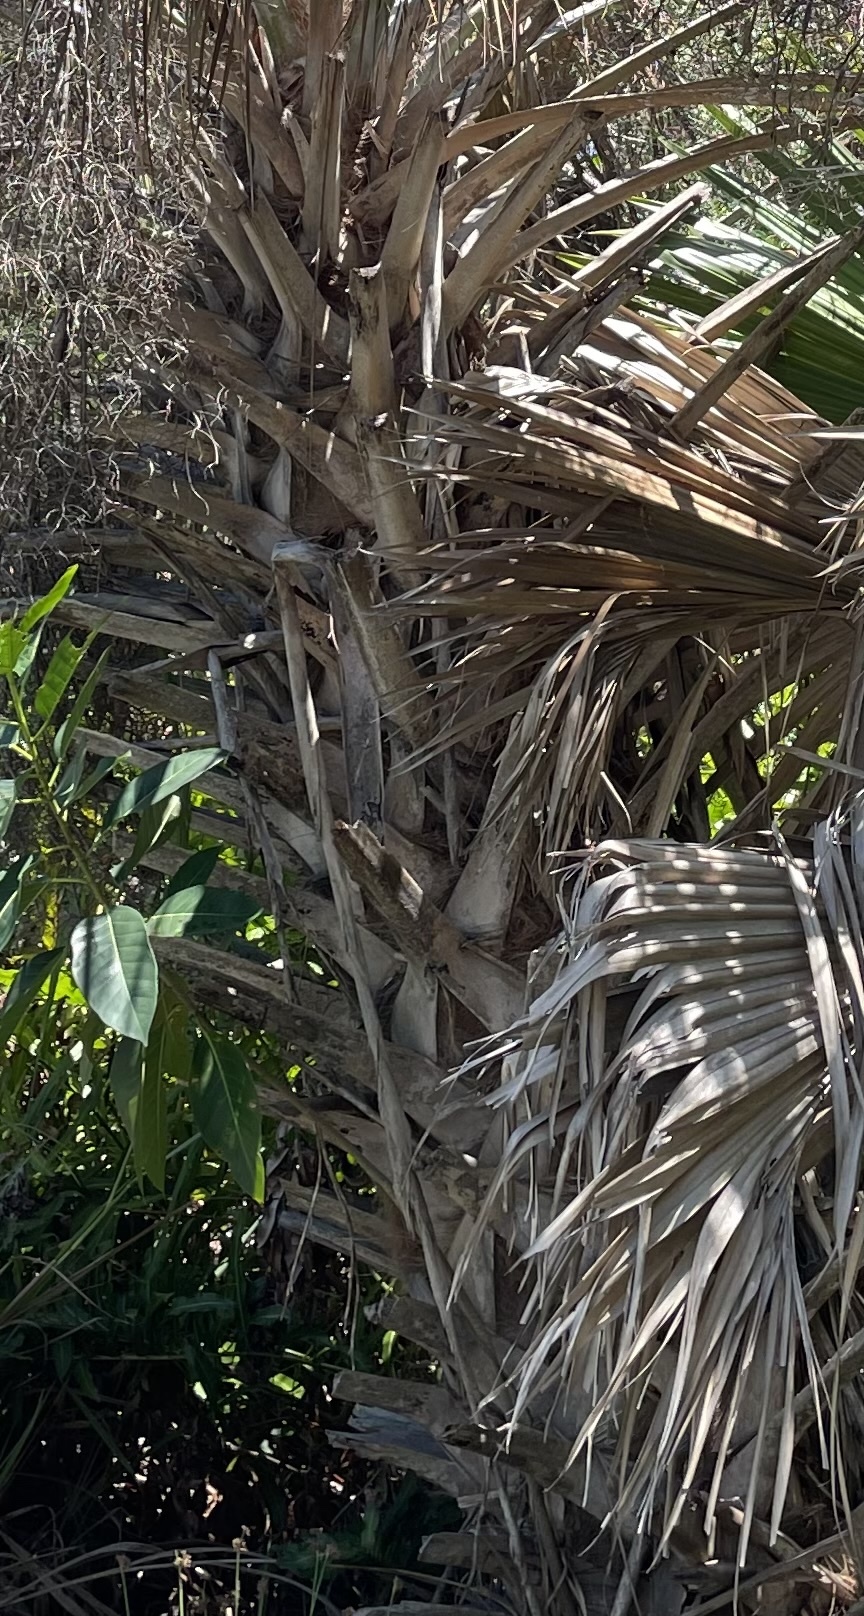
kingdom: Plantae
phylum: Tracheophyta
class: Liliopsida
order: Arecales
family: Arecaceae
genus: Sabal
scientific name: Sabal palmetto
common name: Blue palmetto
